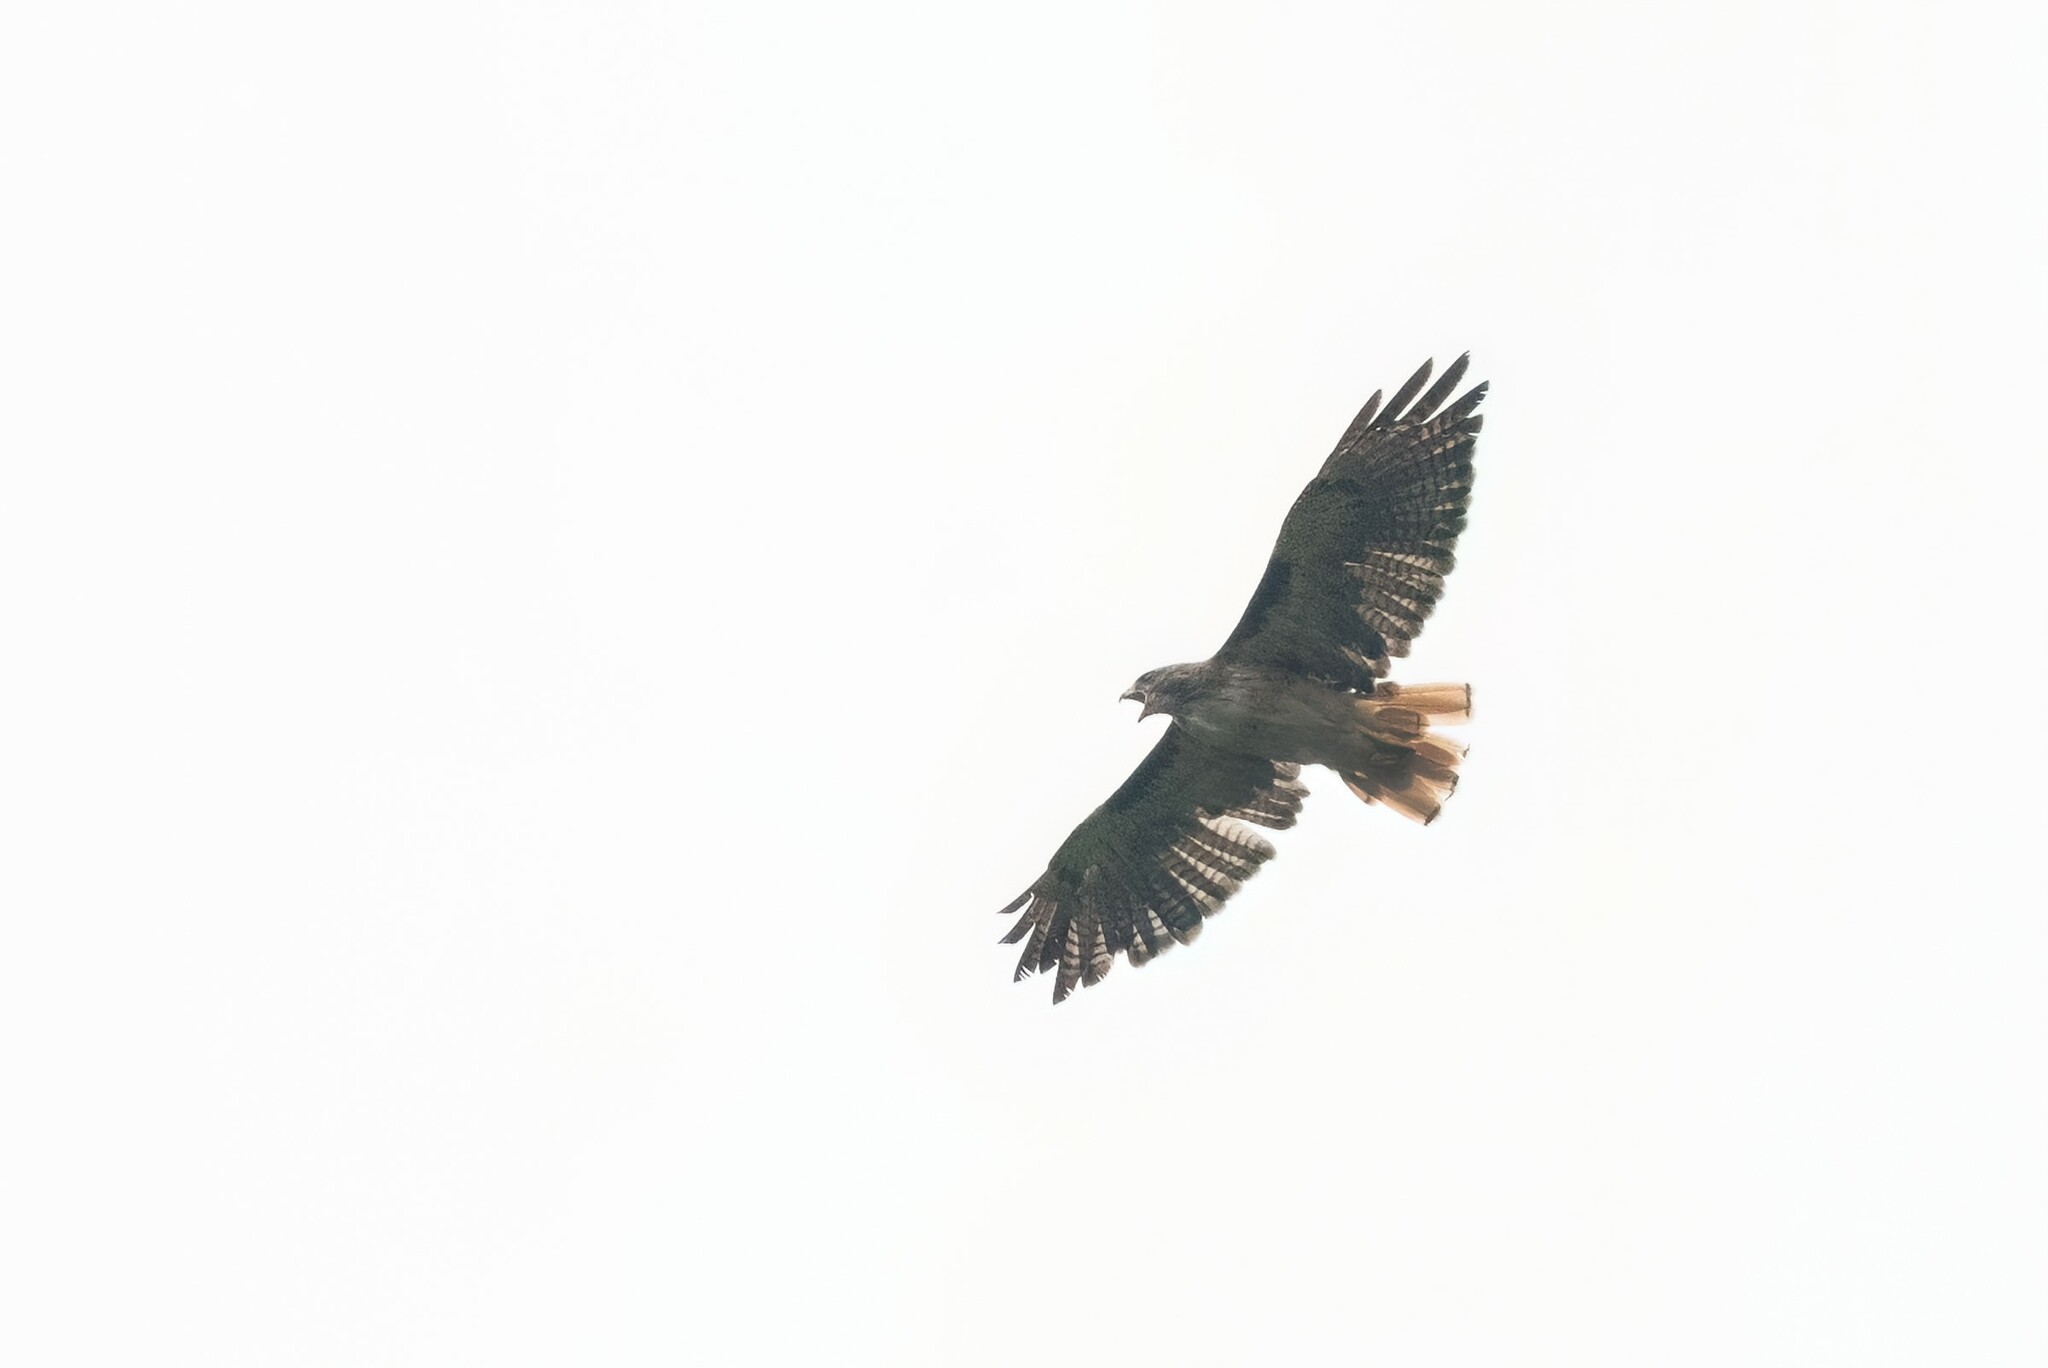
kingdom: Animalia
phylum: Chordata
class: Aves
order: Accipitriformes
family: Accipitridae
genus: Buteo
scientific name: Buteo jamaicensis
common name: Red-tailed hawk
